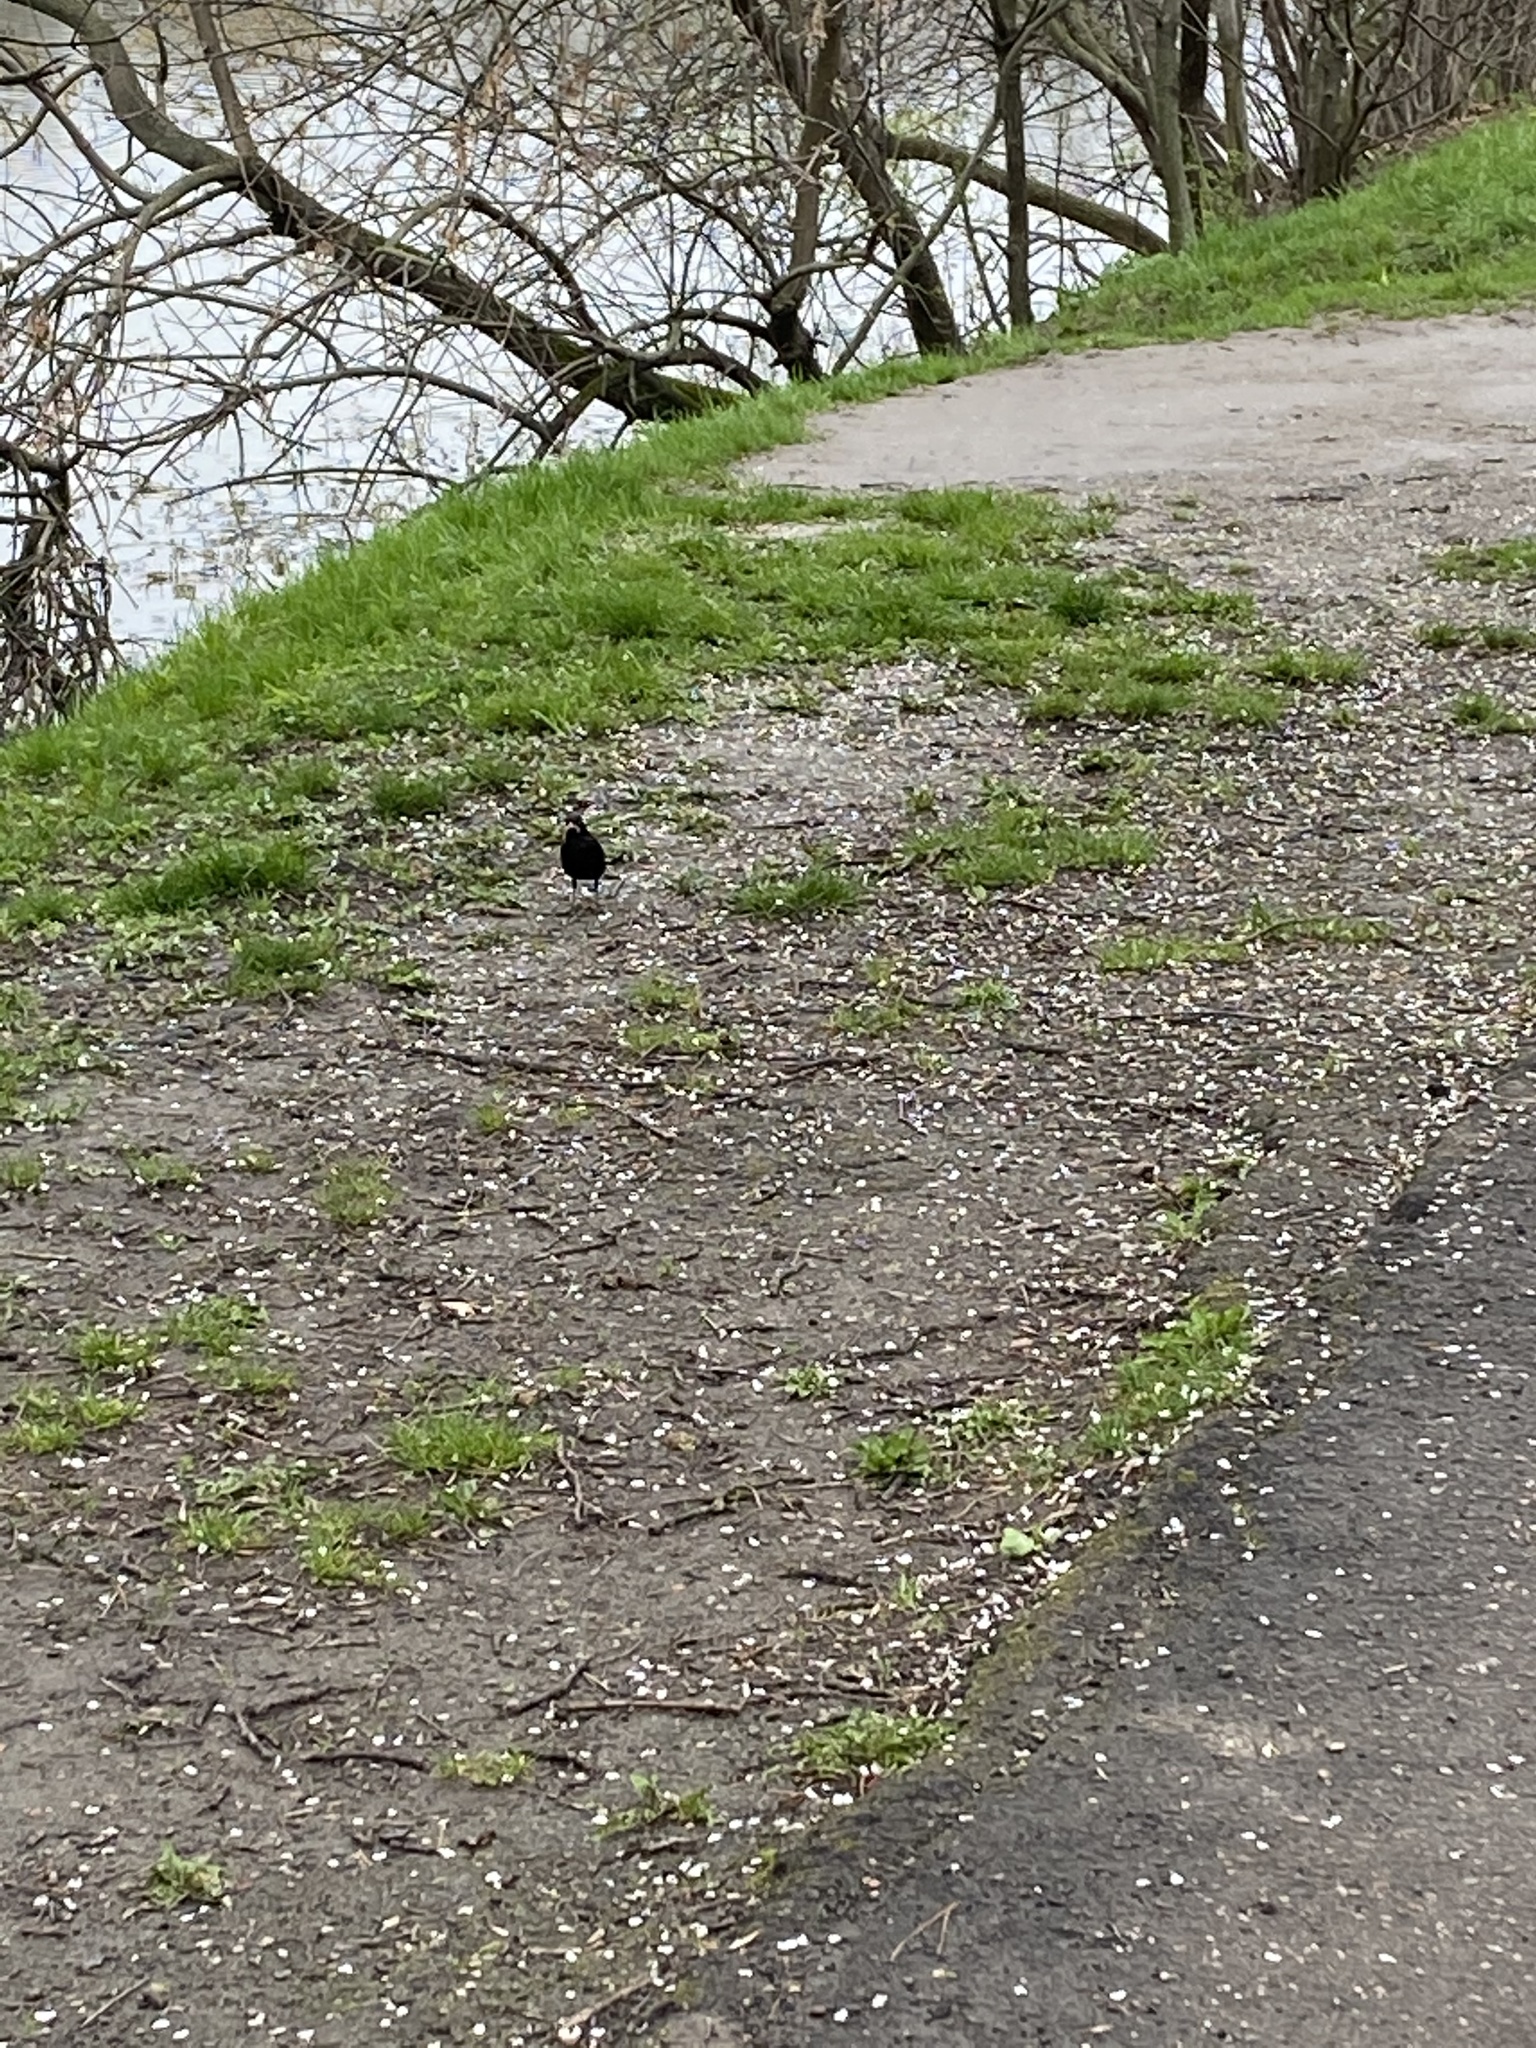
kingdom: Animalia
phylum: Chordata
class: Aves
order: Passeriformes
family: Turdidae
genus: Turdus
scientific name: Turdus merula
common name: Common blackbird
